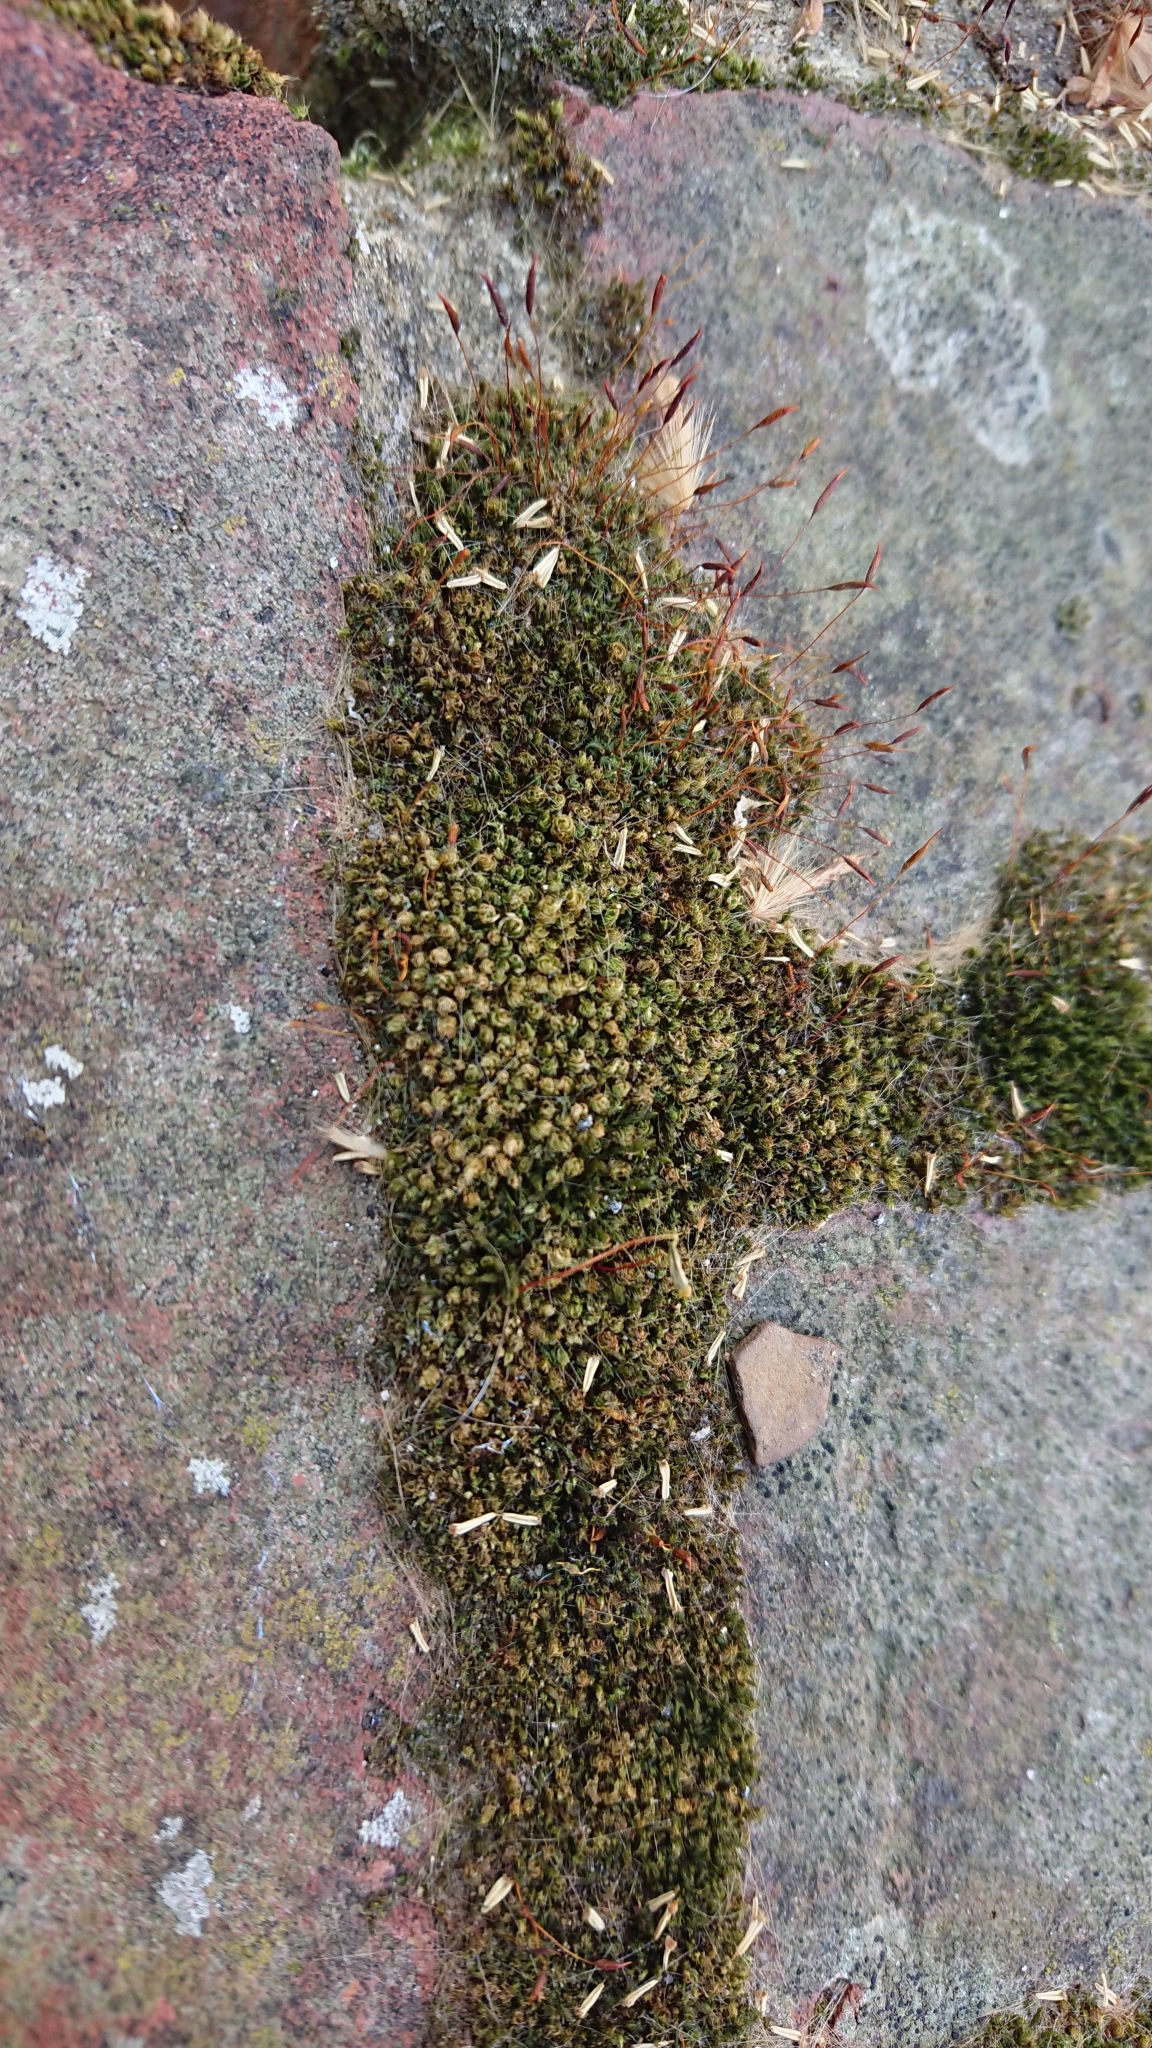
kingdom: Plantae
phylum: Bryophyta
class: Bryopsida
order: Pottiales
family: Pottiaceae
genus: Tortula
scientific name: Tortula muralis
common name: Wall screw-moss
